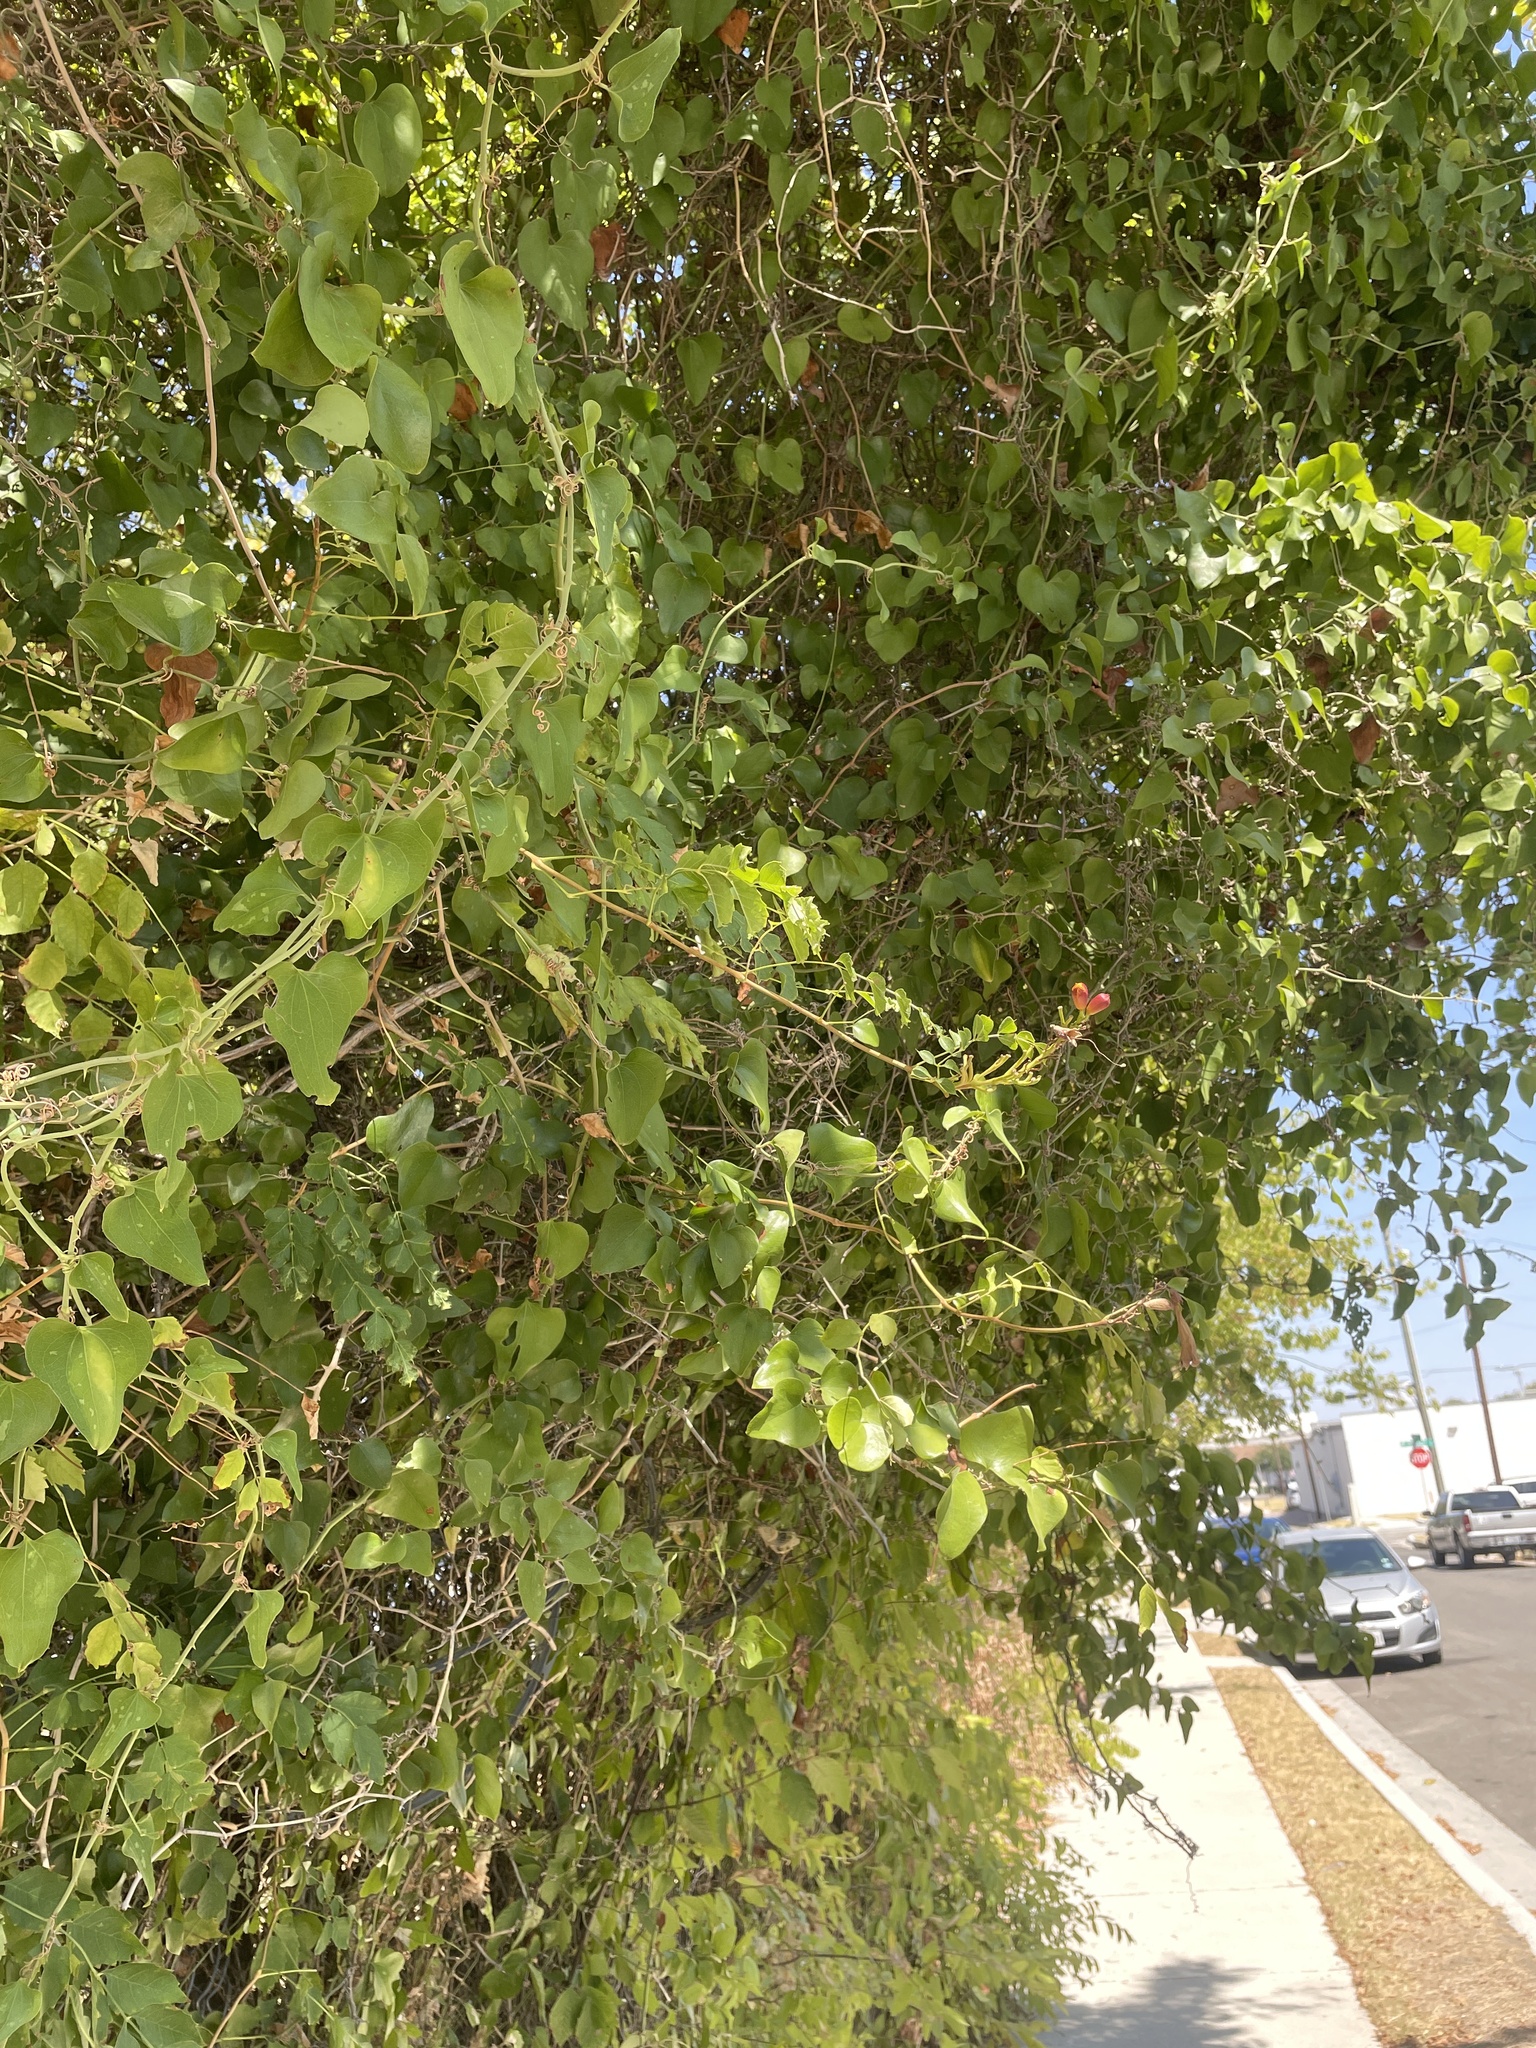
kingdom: Plantae
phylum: Tracheophyta
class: Magnoliopsida
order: Lamiales
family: Bignoniaceae
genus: Campsis
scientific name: Campsis radicans
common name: Trumpet-creeper
